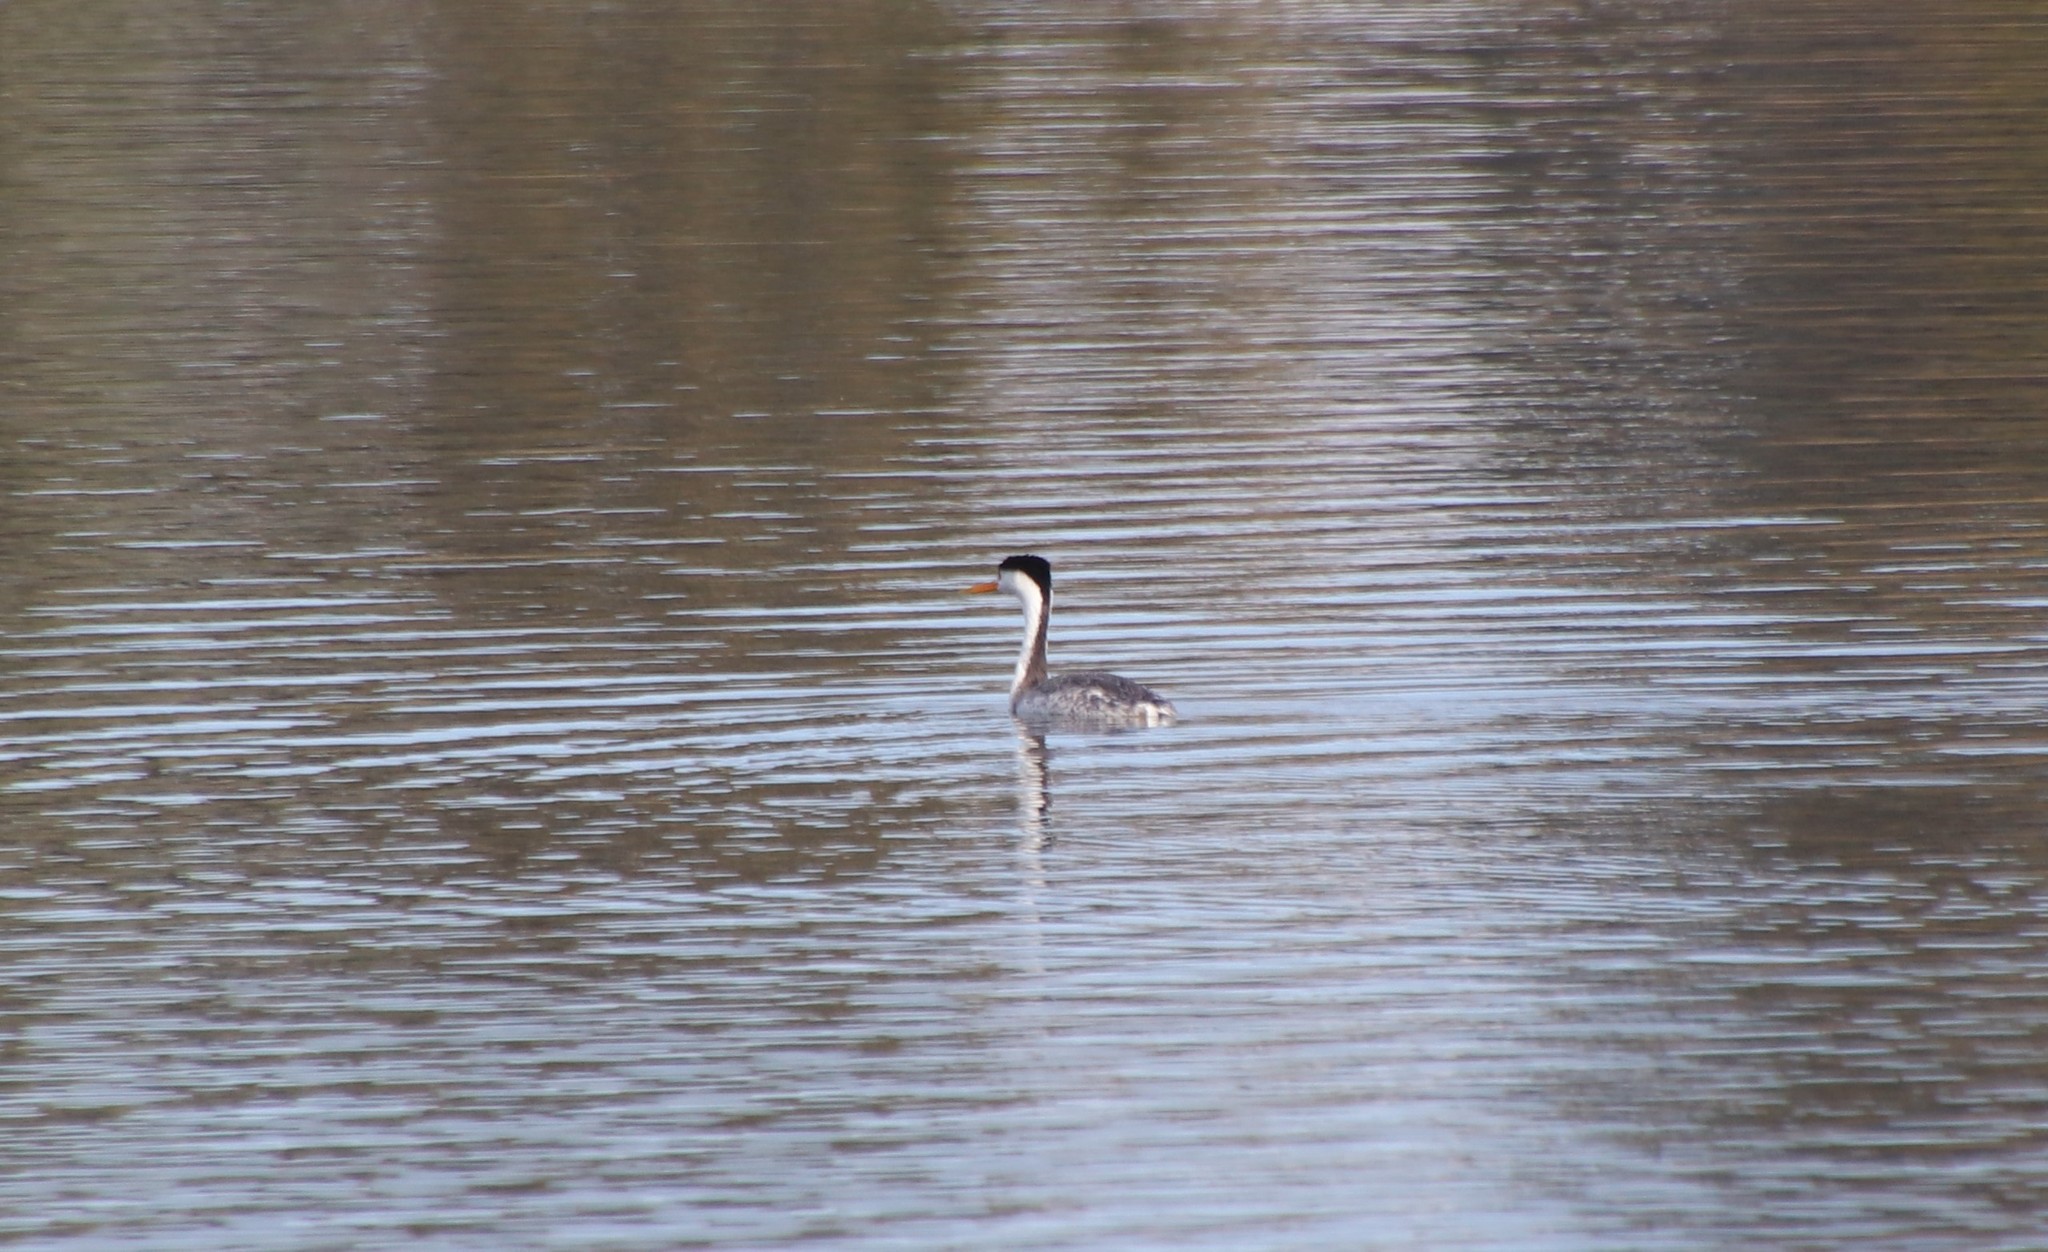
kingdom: Animalia
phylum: Chordata
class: Aves
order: Podicipediformes
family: Podicipedidae
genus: Aechmophorus
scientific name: Aechmophorus clarkii
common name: Clark's grebe
